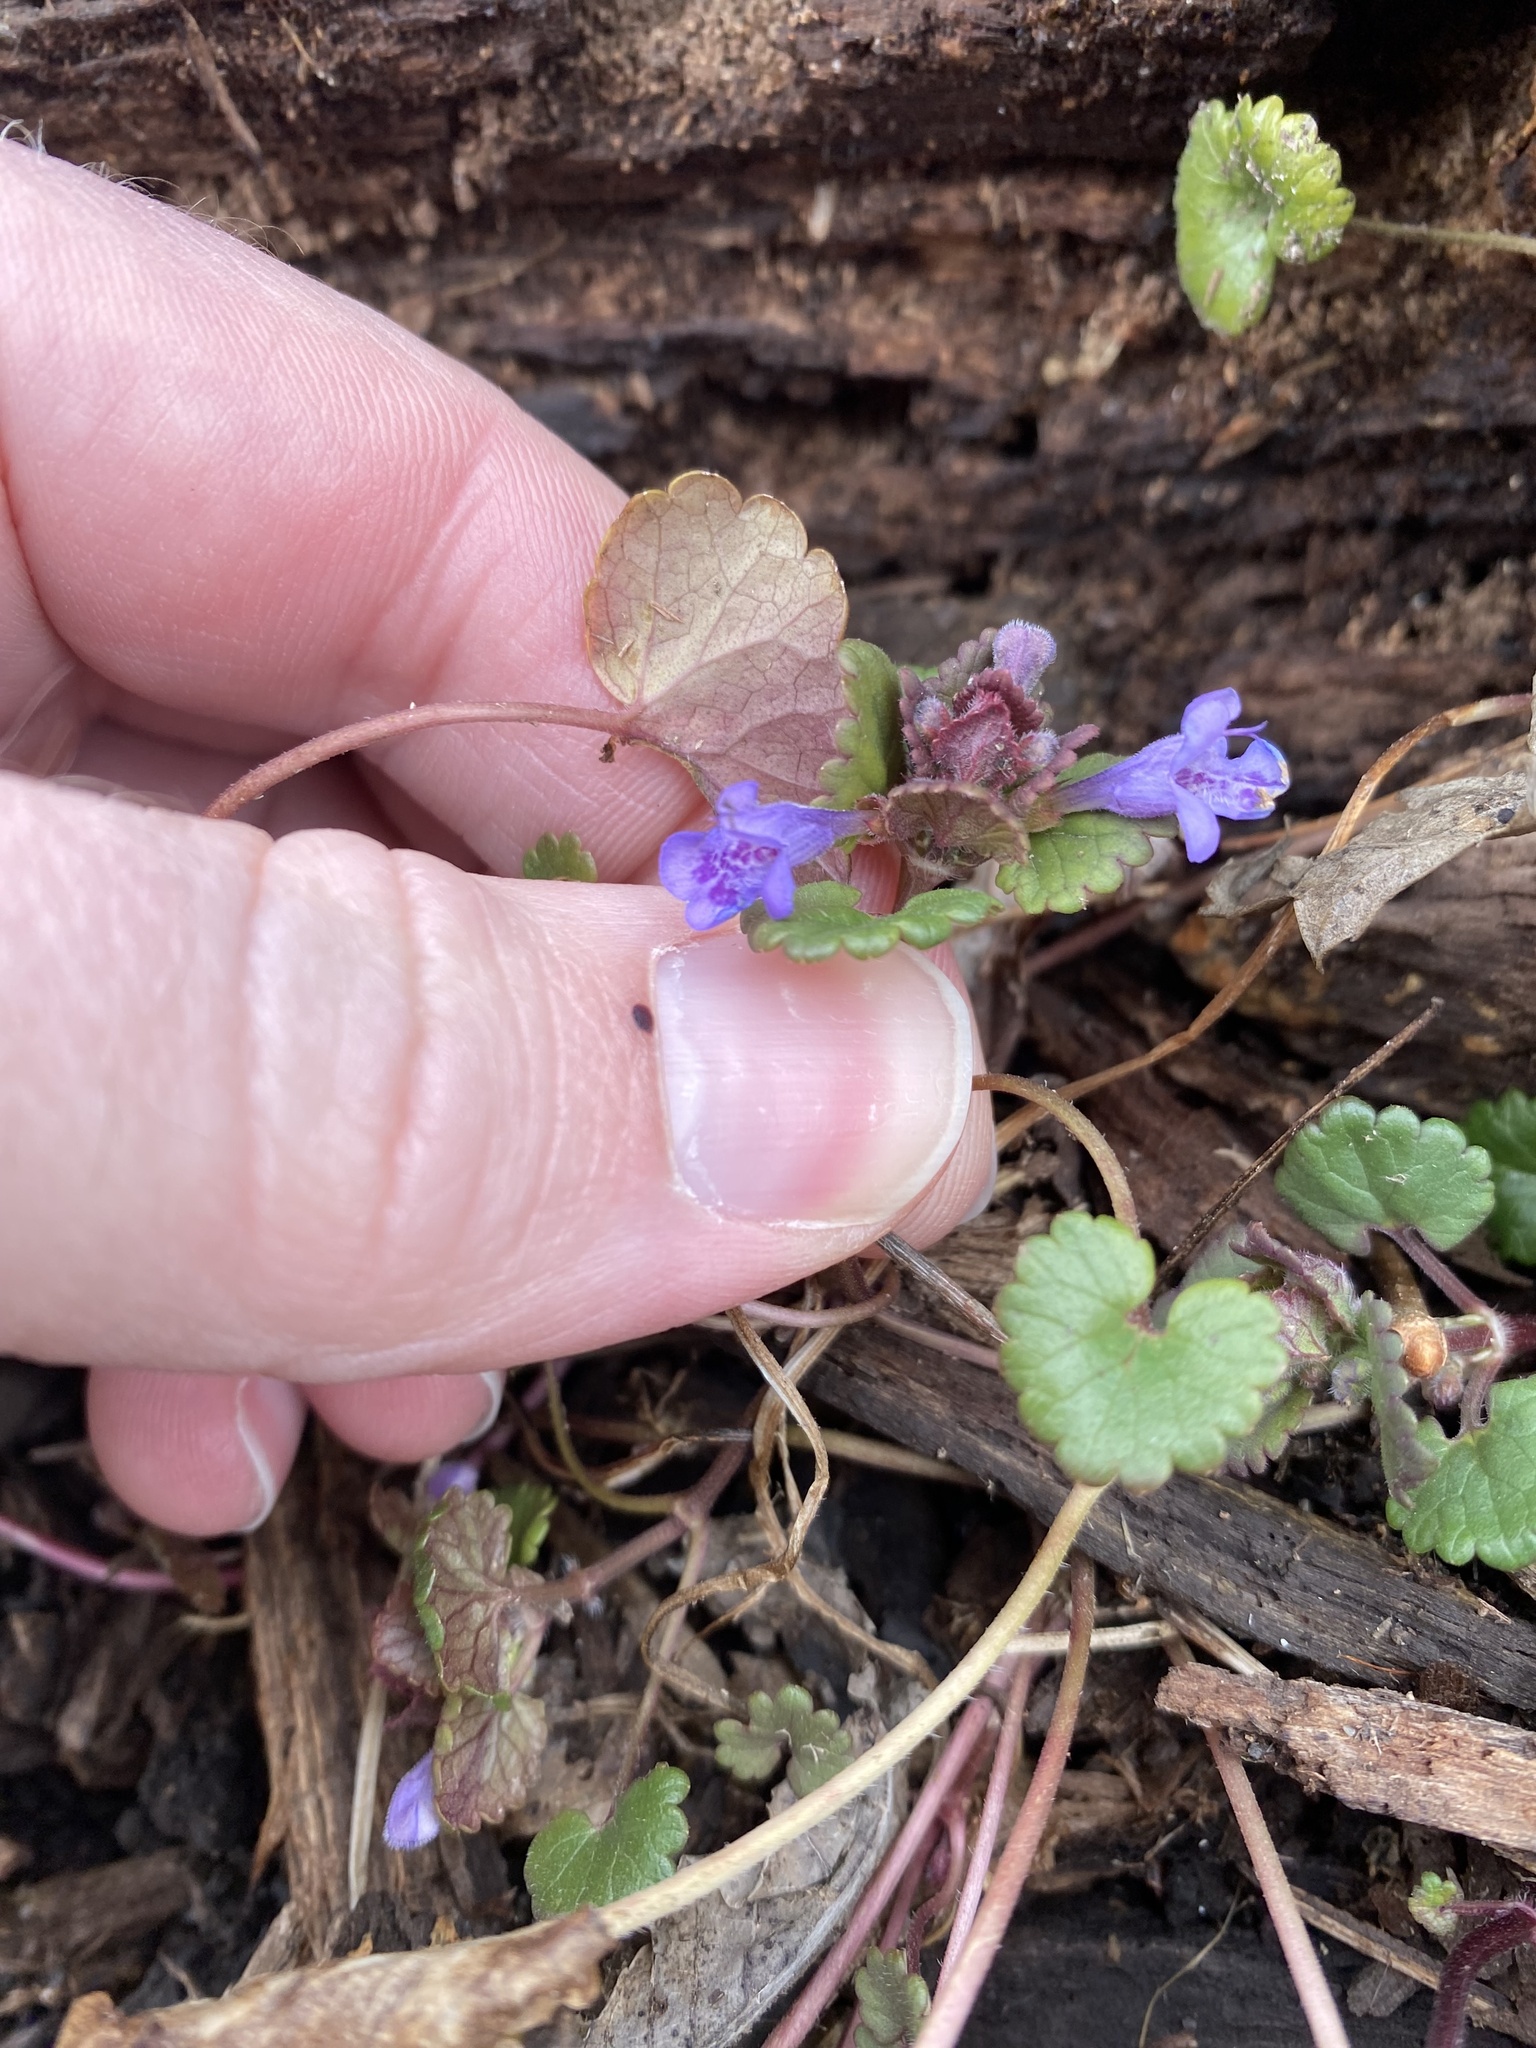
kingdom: Plantae
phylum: Tracheophyta
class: Magnoliopsida
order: Lamiales
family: Lamiaceae
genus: Glechoma
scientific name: Glechoma hederacea
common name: Ground ivy
